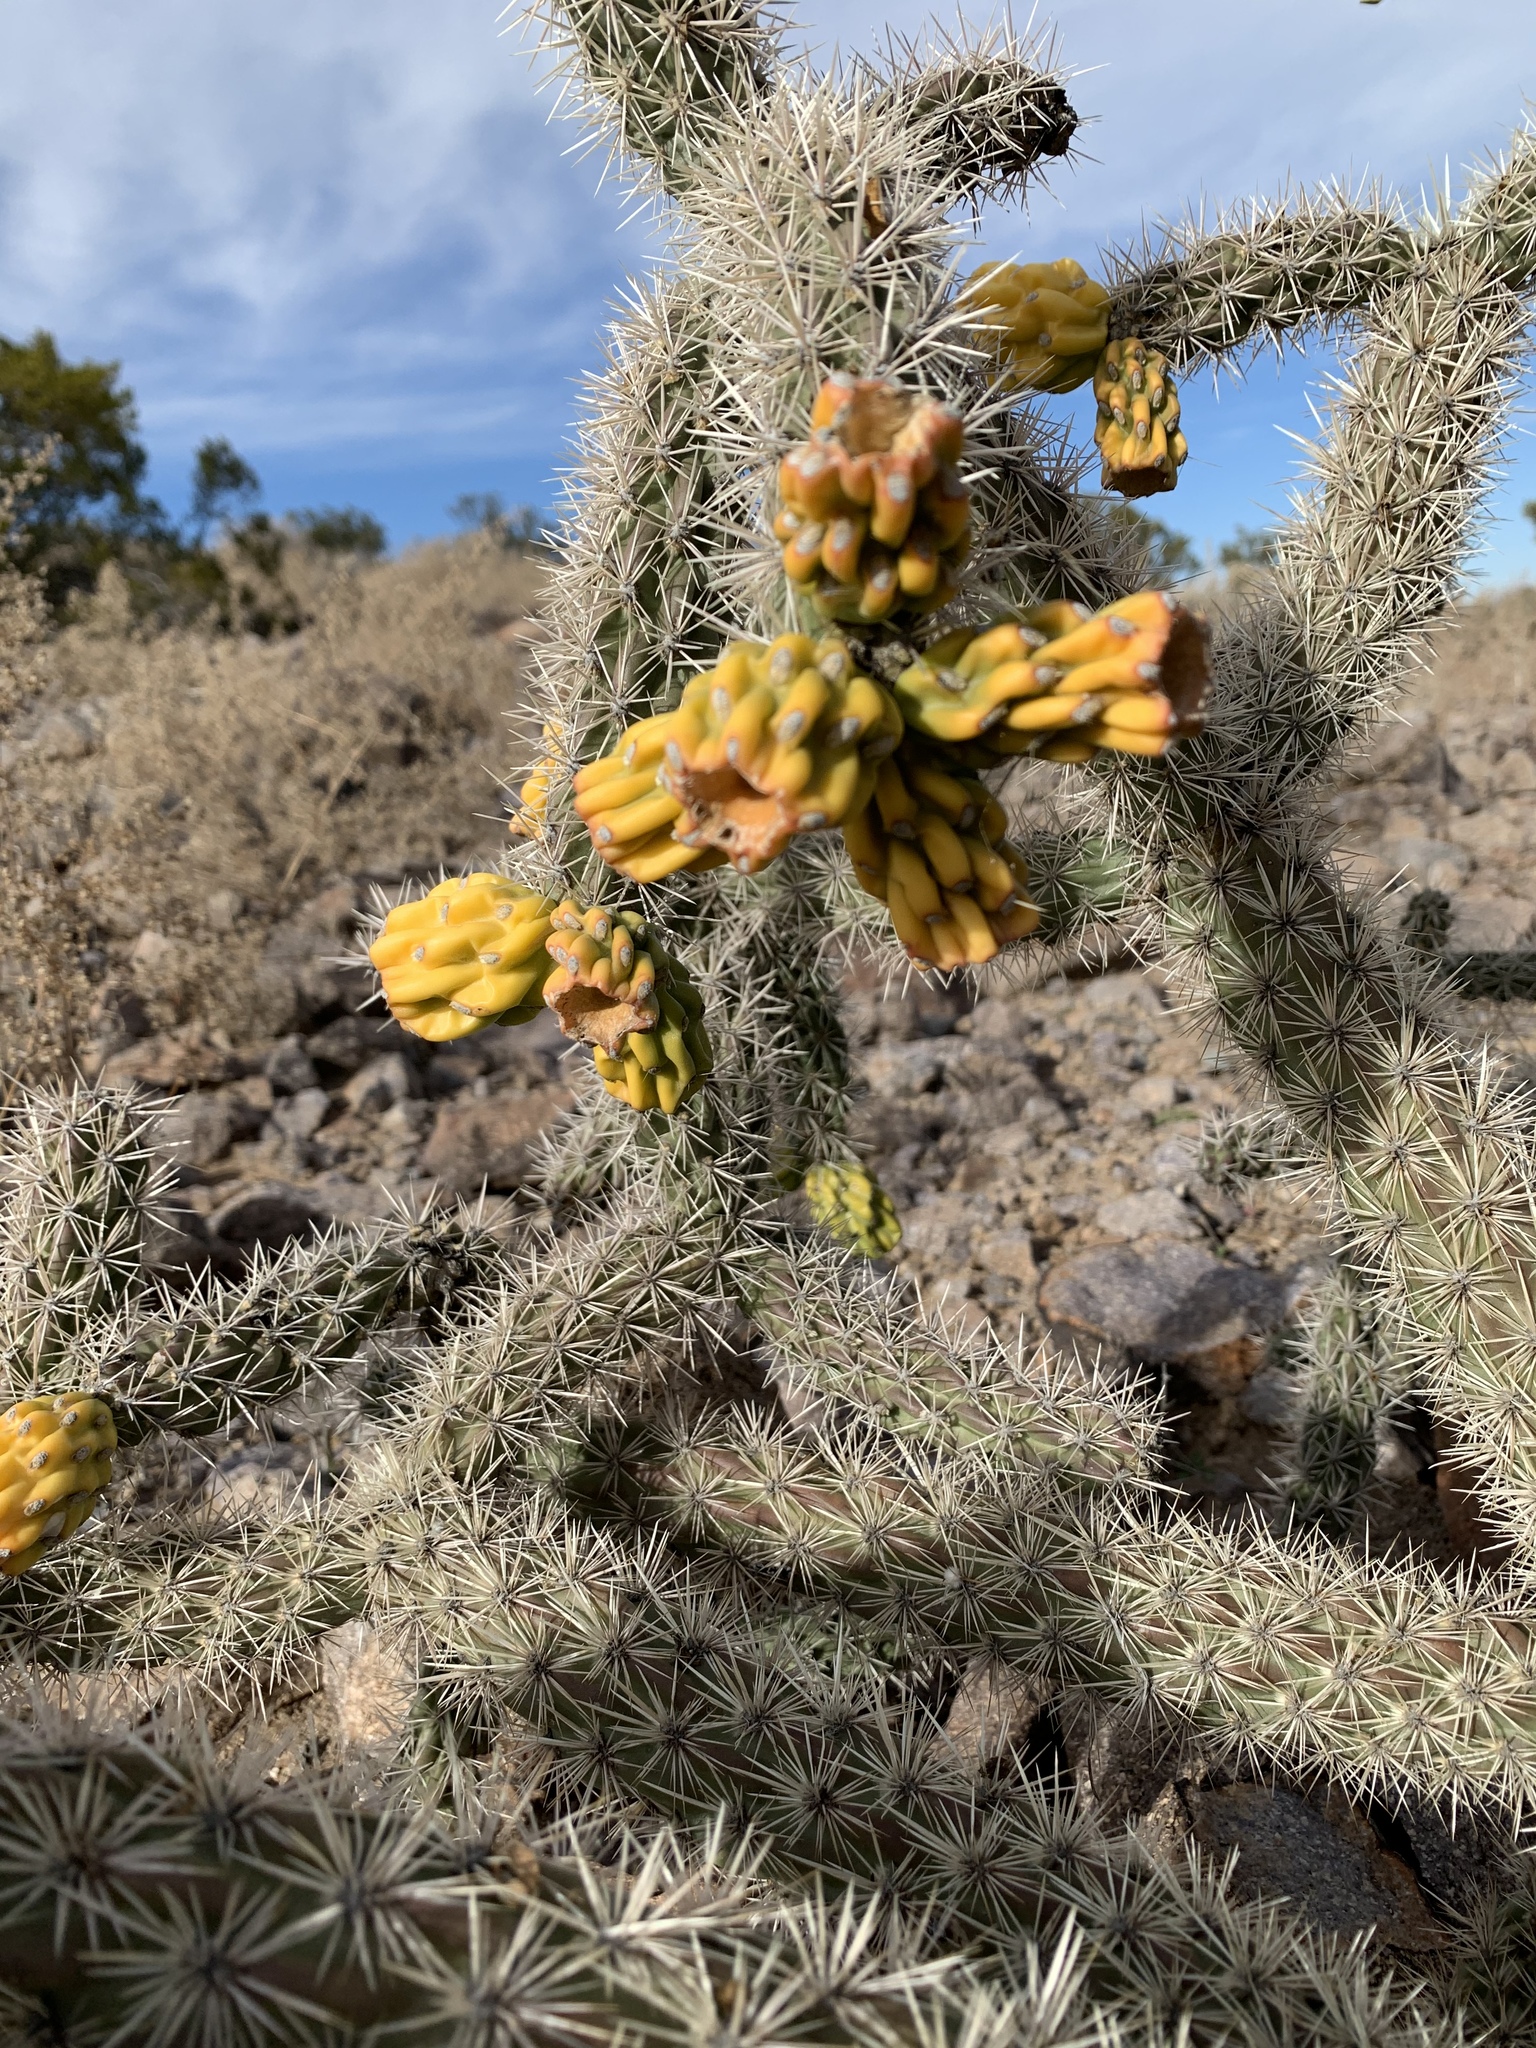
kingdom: Plantae
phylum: Tracheophyta
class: Magnoliopsida
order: Caryophyllales
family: Cactaceae
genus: Cylindropuntia
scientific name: Cylindropuntia imbricata
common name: Candelabrum cactus
